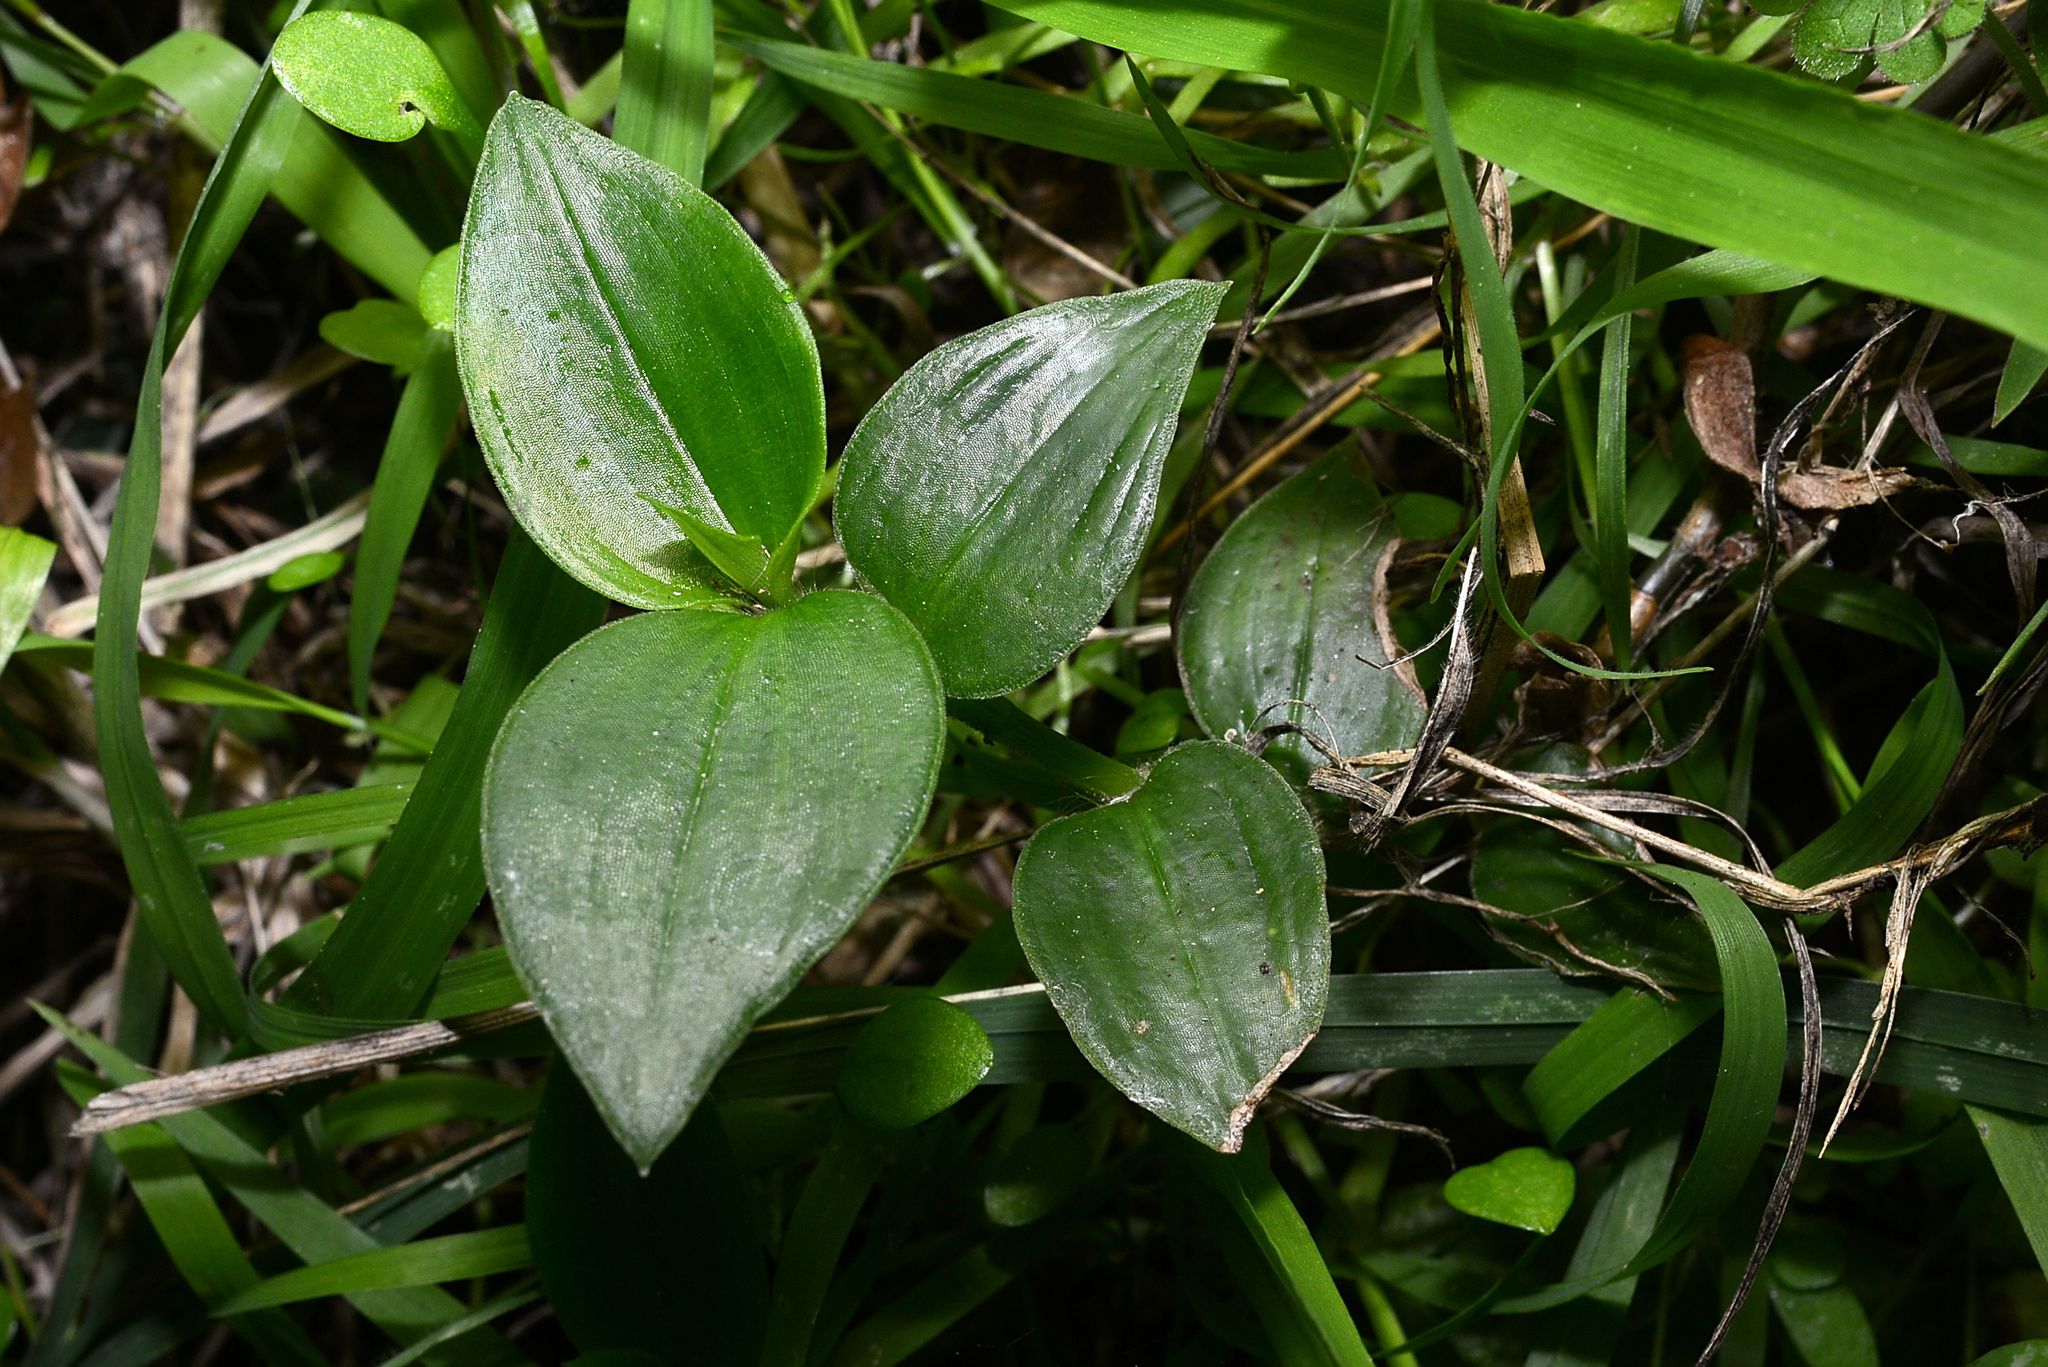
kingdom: Plantae
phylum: Tracheophyta
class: Liliopsida
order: Commelinales
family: Commelinaceae
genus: Tradescantia
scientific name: Tradescantia fluminensis
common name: Wandering-jew
